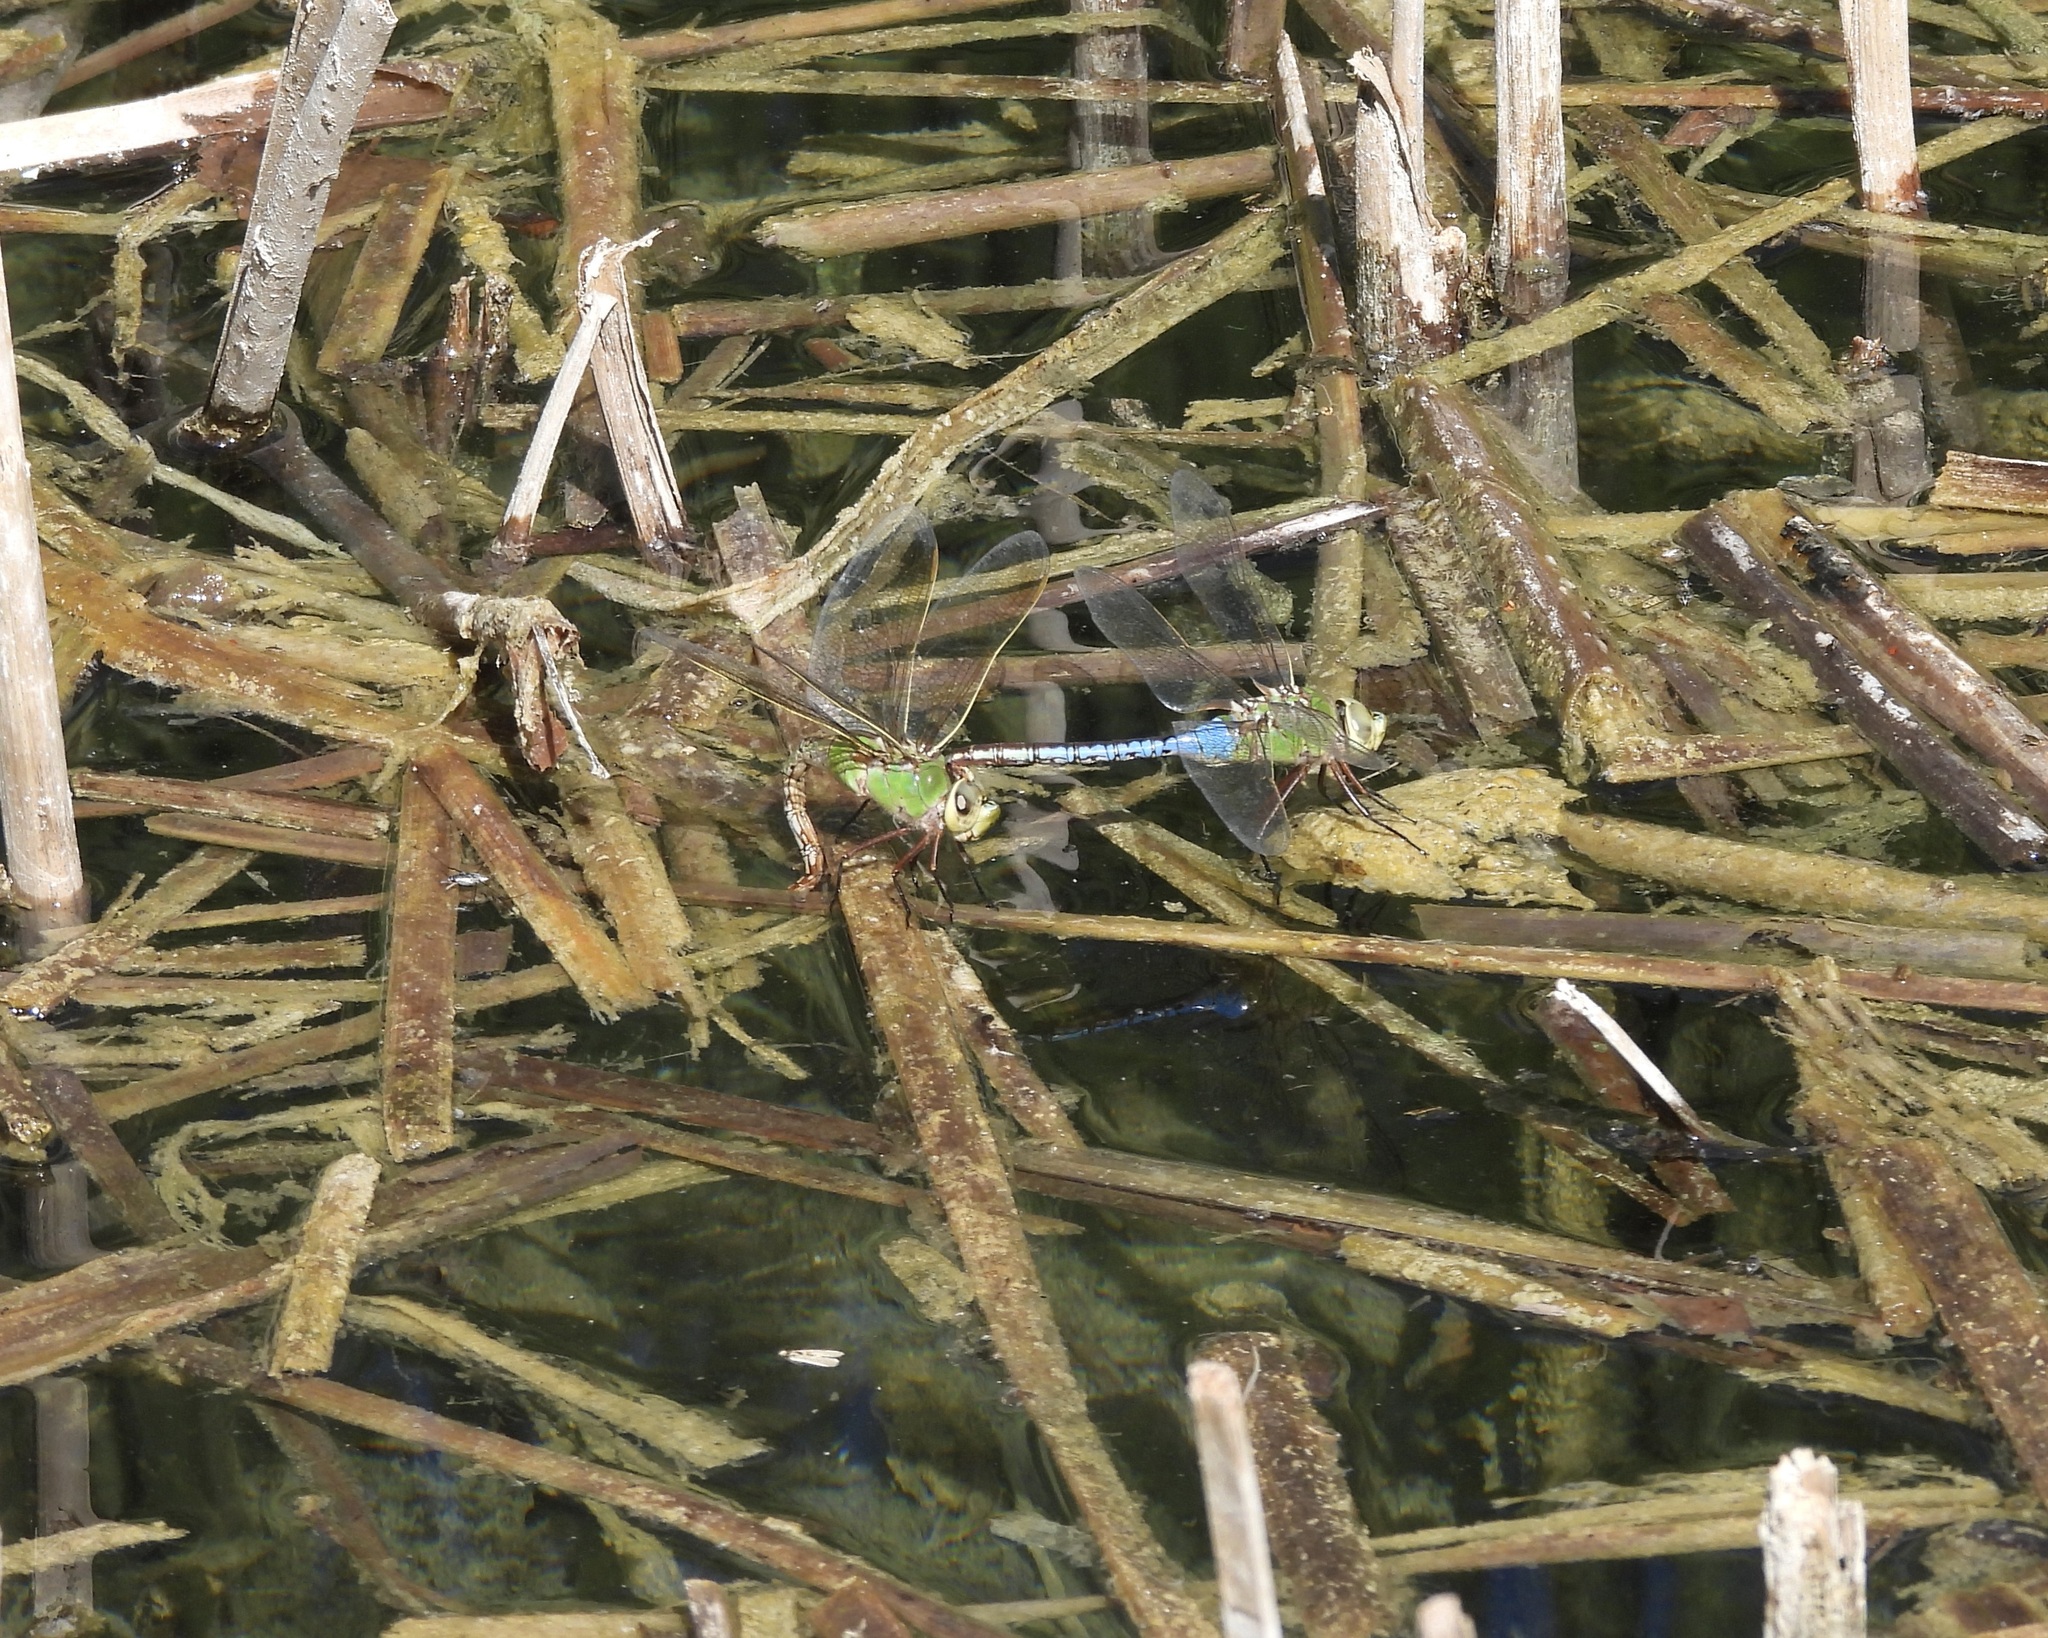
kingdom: Animalia
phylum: Arthropoda
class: Insecta
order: Odonata
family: Aeshnidae
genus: Anax
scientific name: Anax junius
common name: Common green darner
